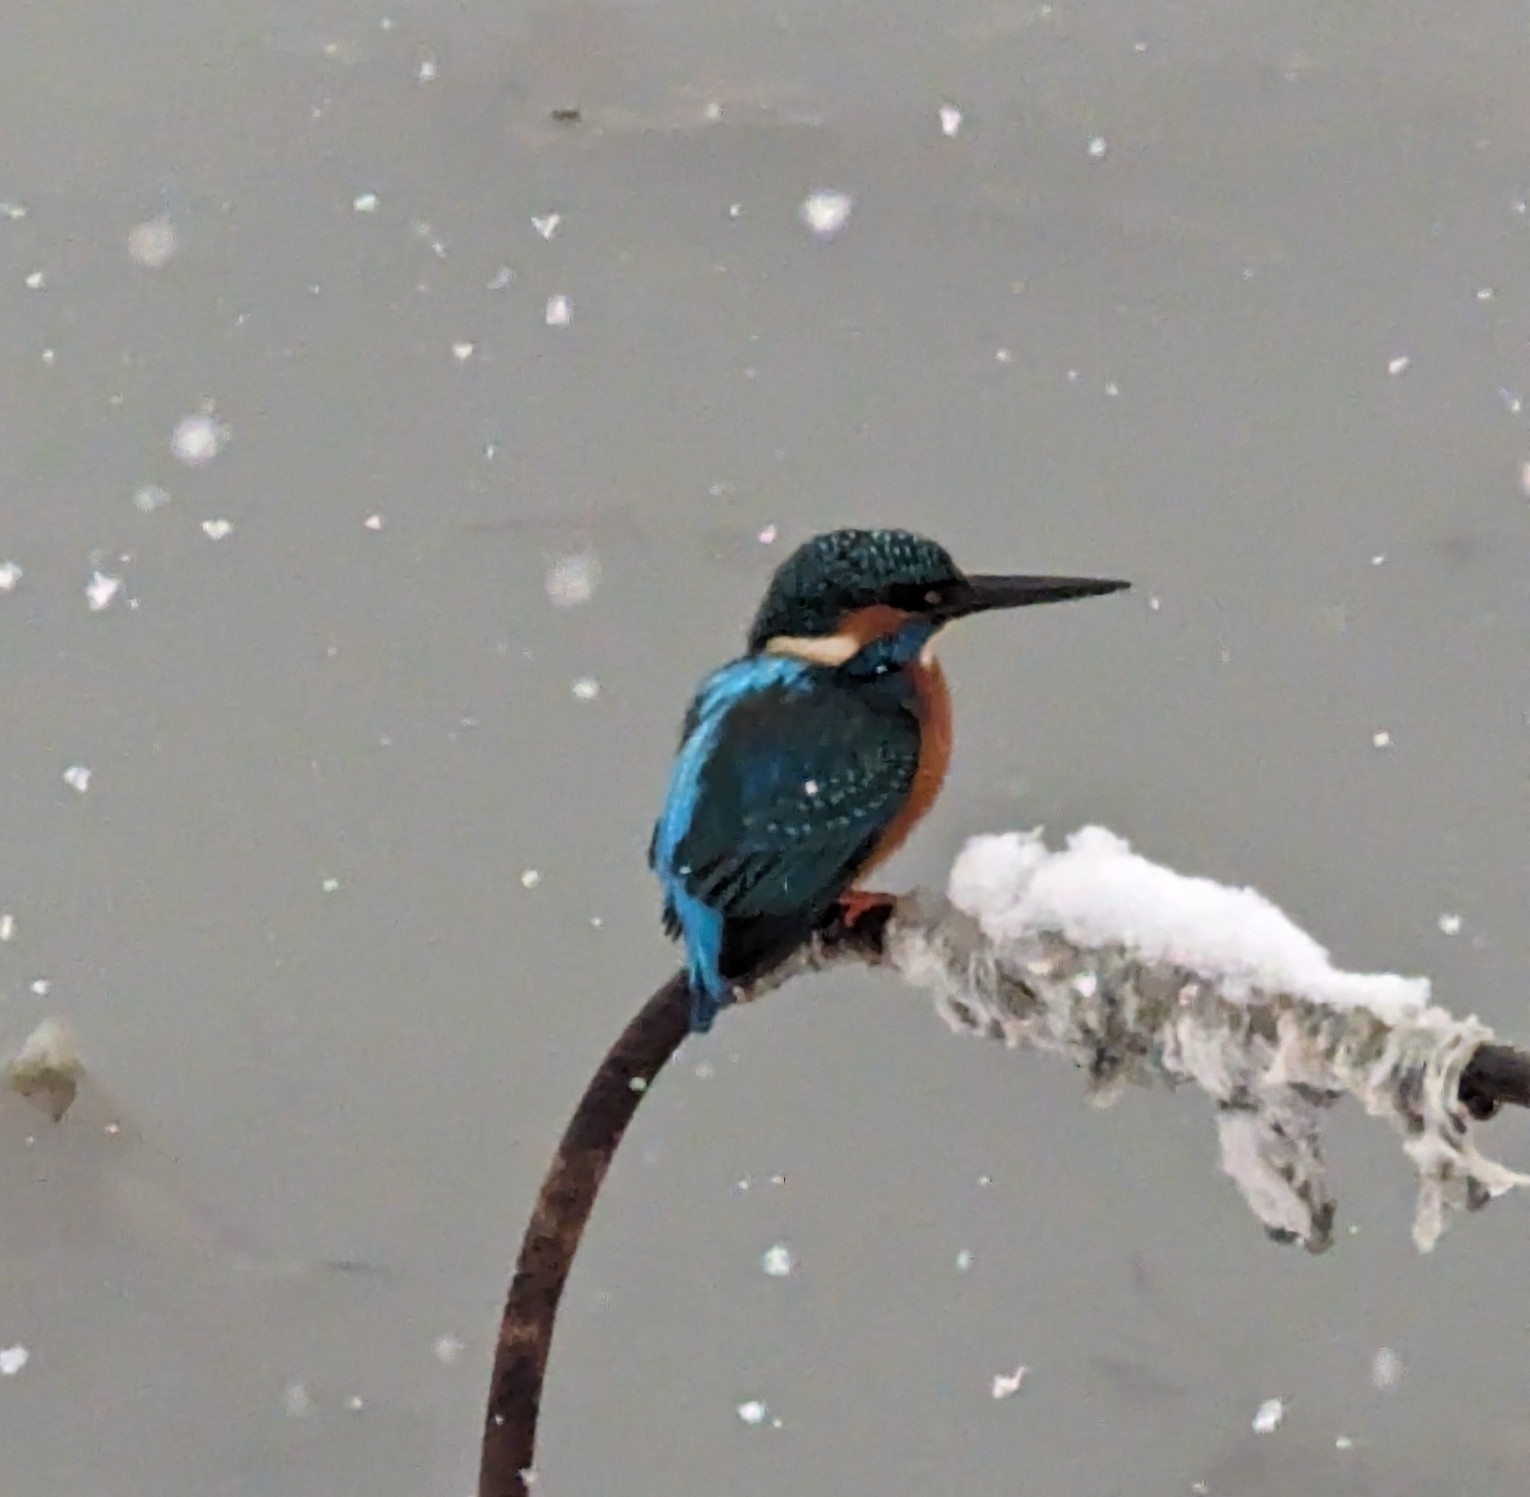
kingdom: Animalia
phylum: Chordata
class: Aves
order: Coraciiformes
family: Alcedinidae
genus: Alcedo
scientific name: Alcedo atthis
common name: Common kingfisher
